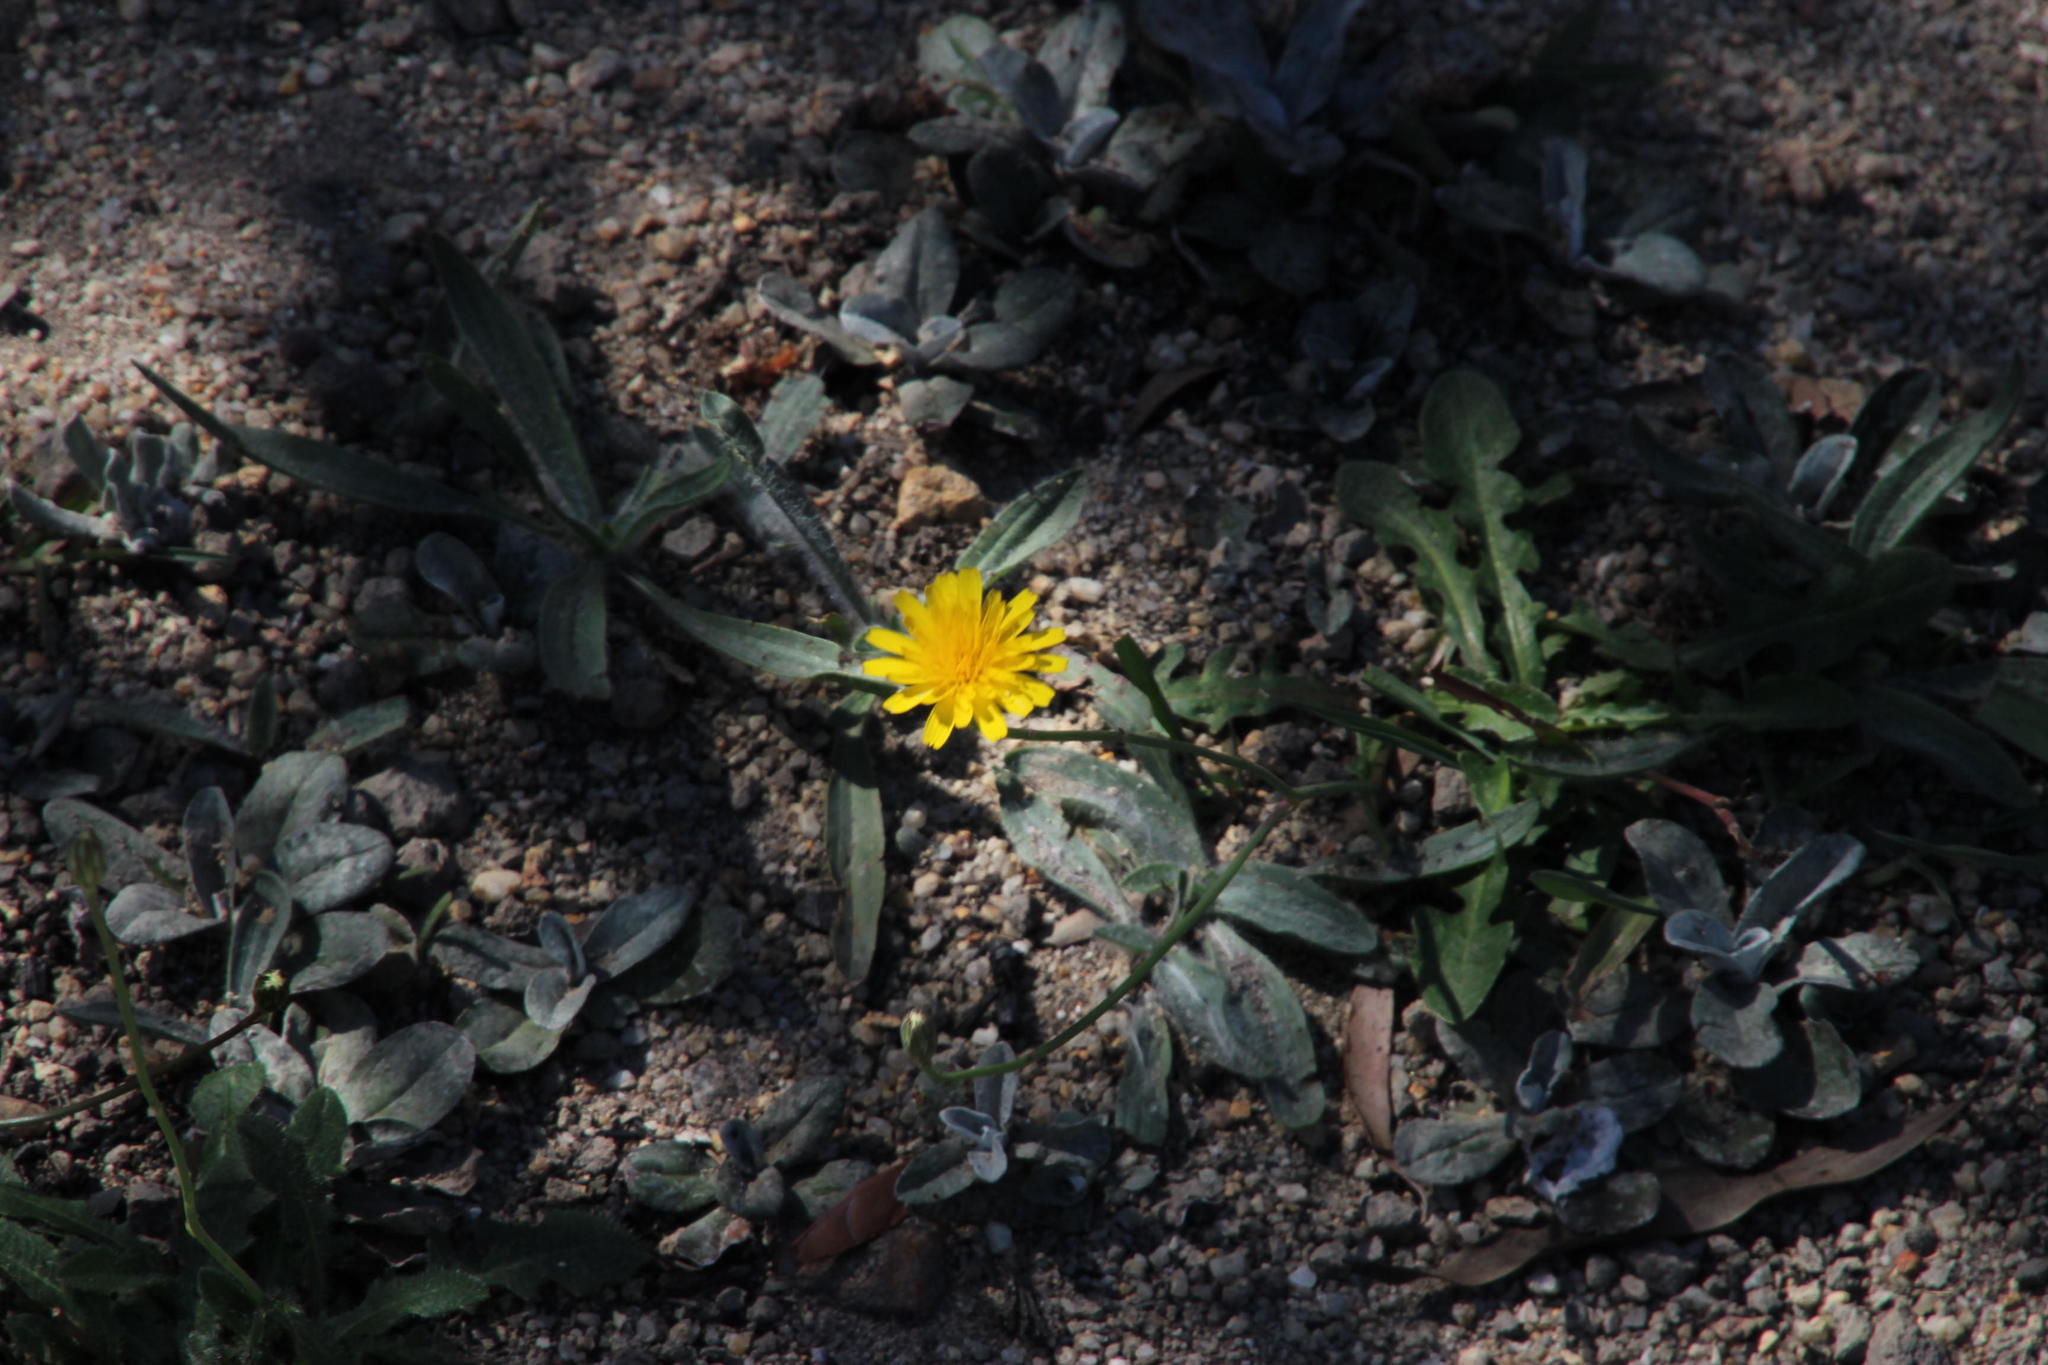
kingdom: Plantae
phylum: Tracheophyta
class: Magnoliopsida
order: Asterales
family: Asteraceae
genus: Hypochaeris
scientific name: Hypochaeris radicata
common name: Flatweed
